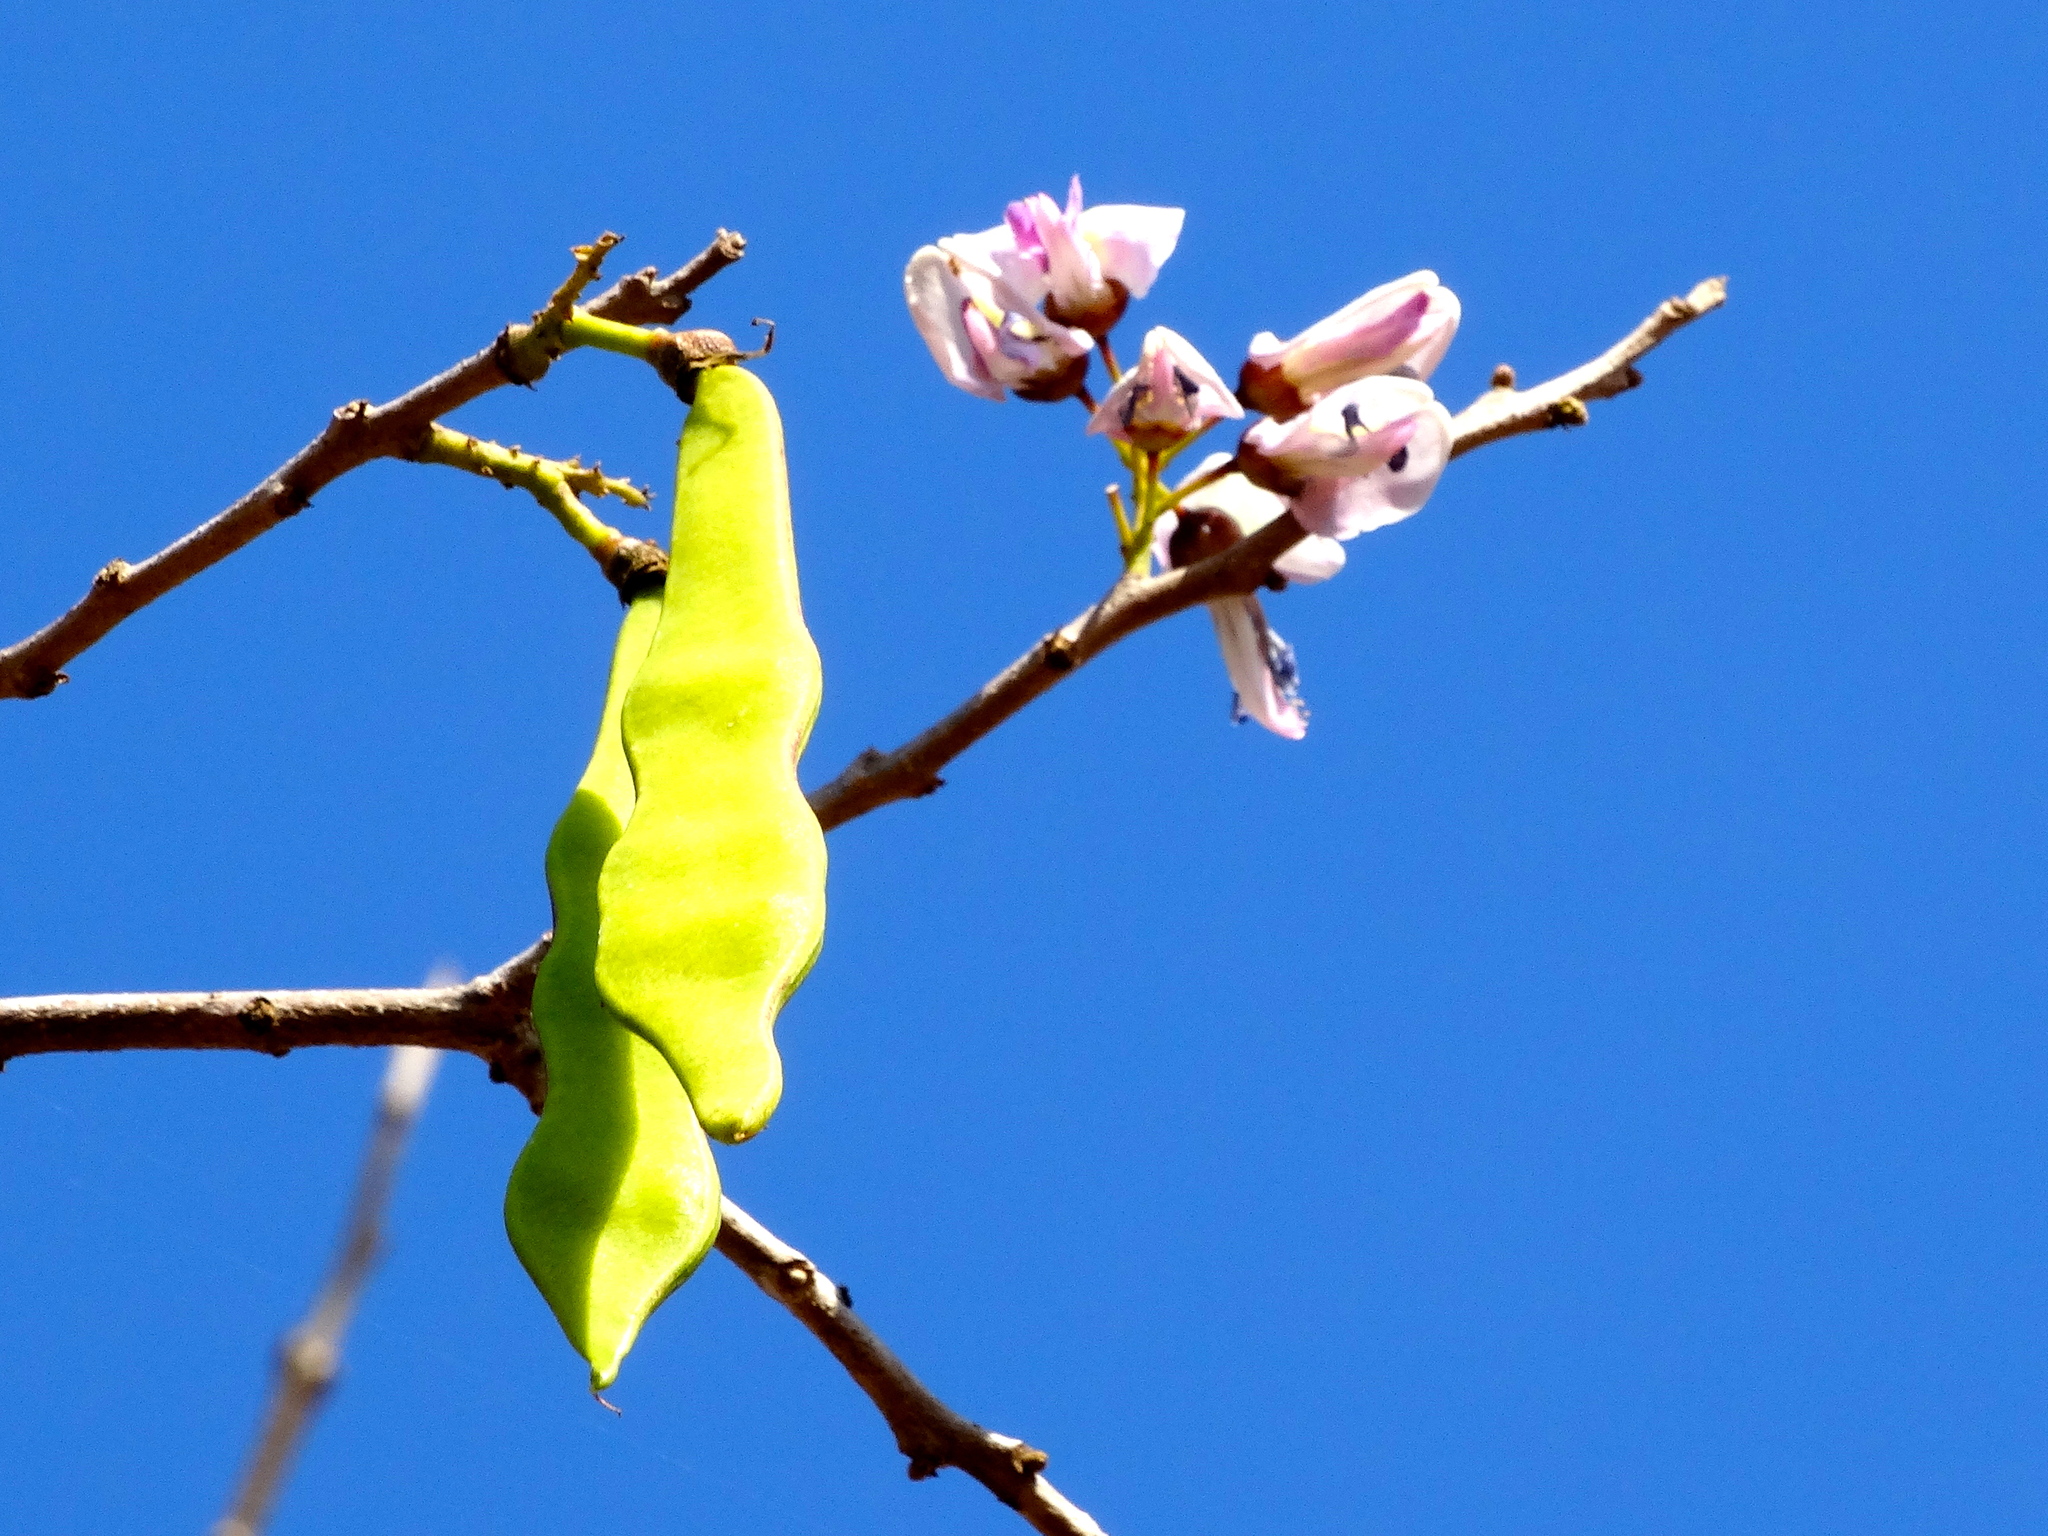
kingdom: Plantae
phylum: Tracheophyta
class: Magnoliopsida
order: Fabales
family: Fabaceae
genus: Gliricidia
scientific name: Gliricidia sepium
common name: Quickstick
